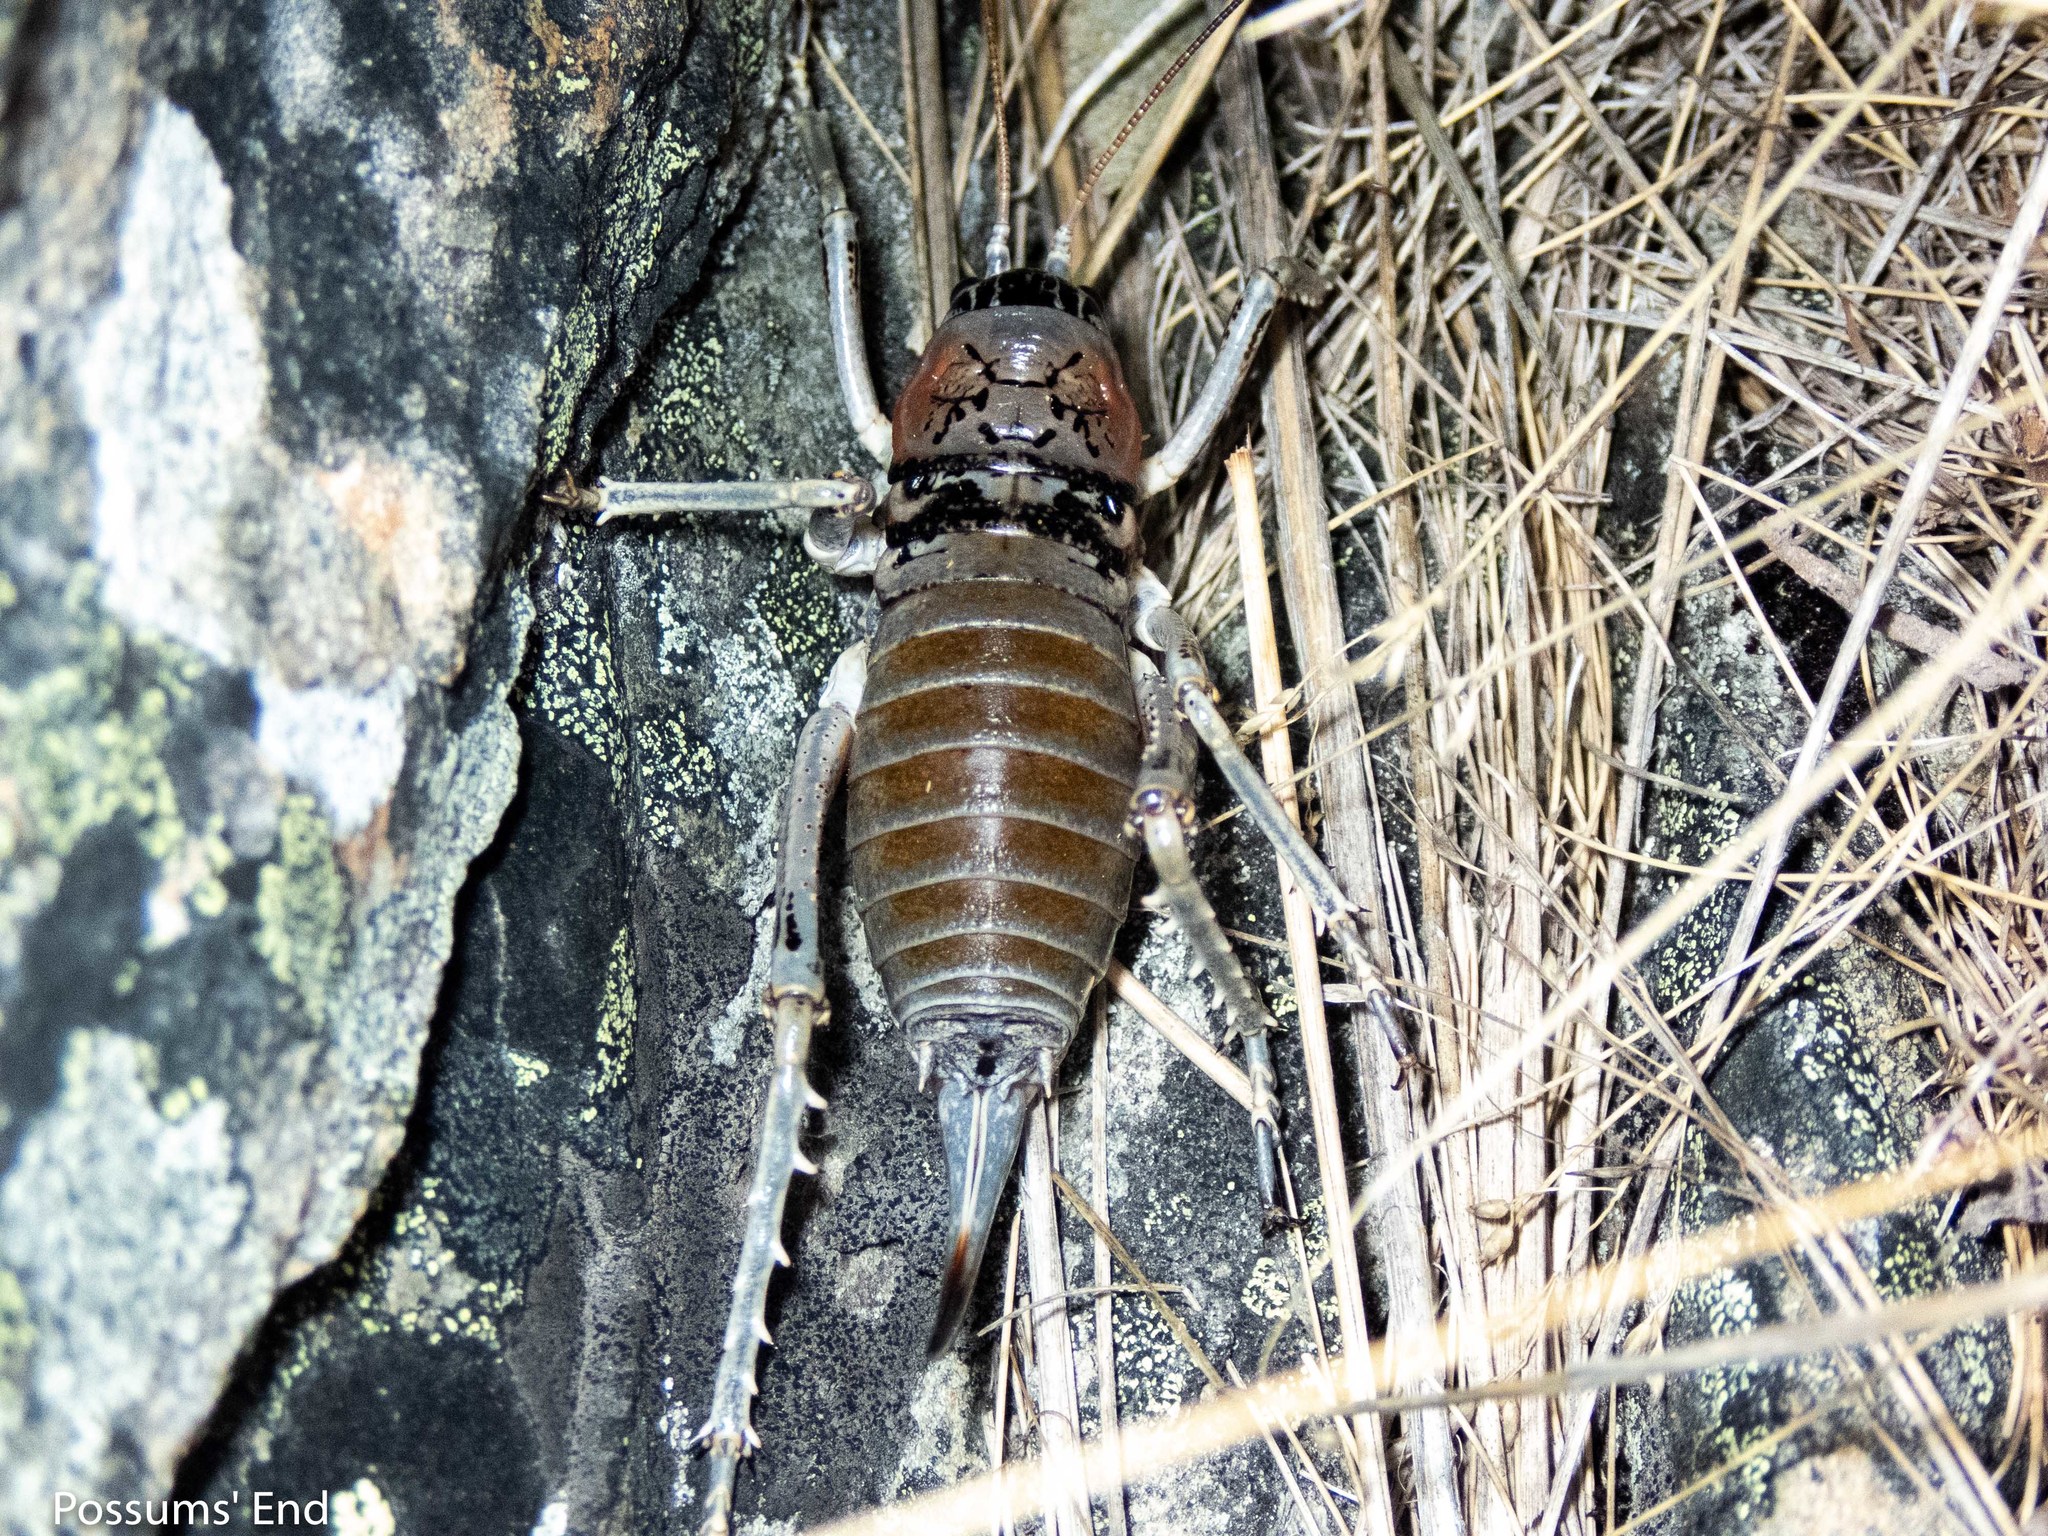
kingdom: Animalia
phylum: Arthropoda
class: Insecta
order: Orthoptera
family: Anostostomatidae
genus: Deinacrida
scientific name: Deinacrida connectens
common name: Scree weta
